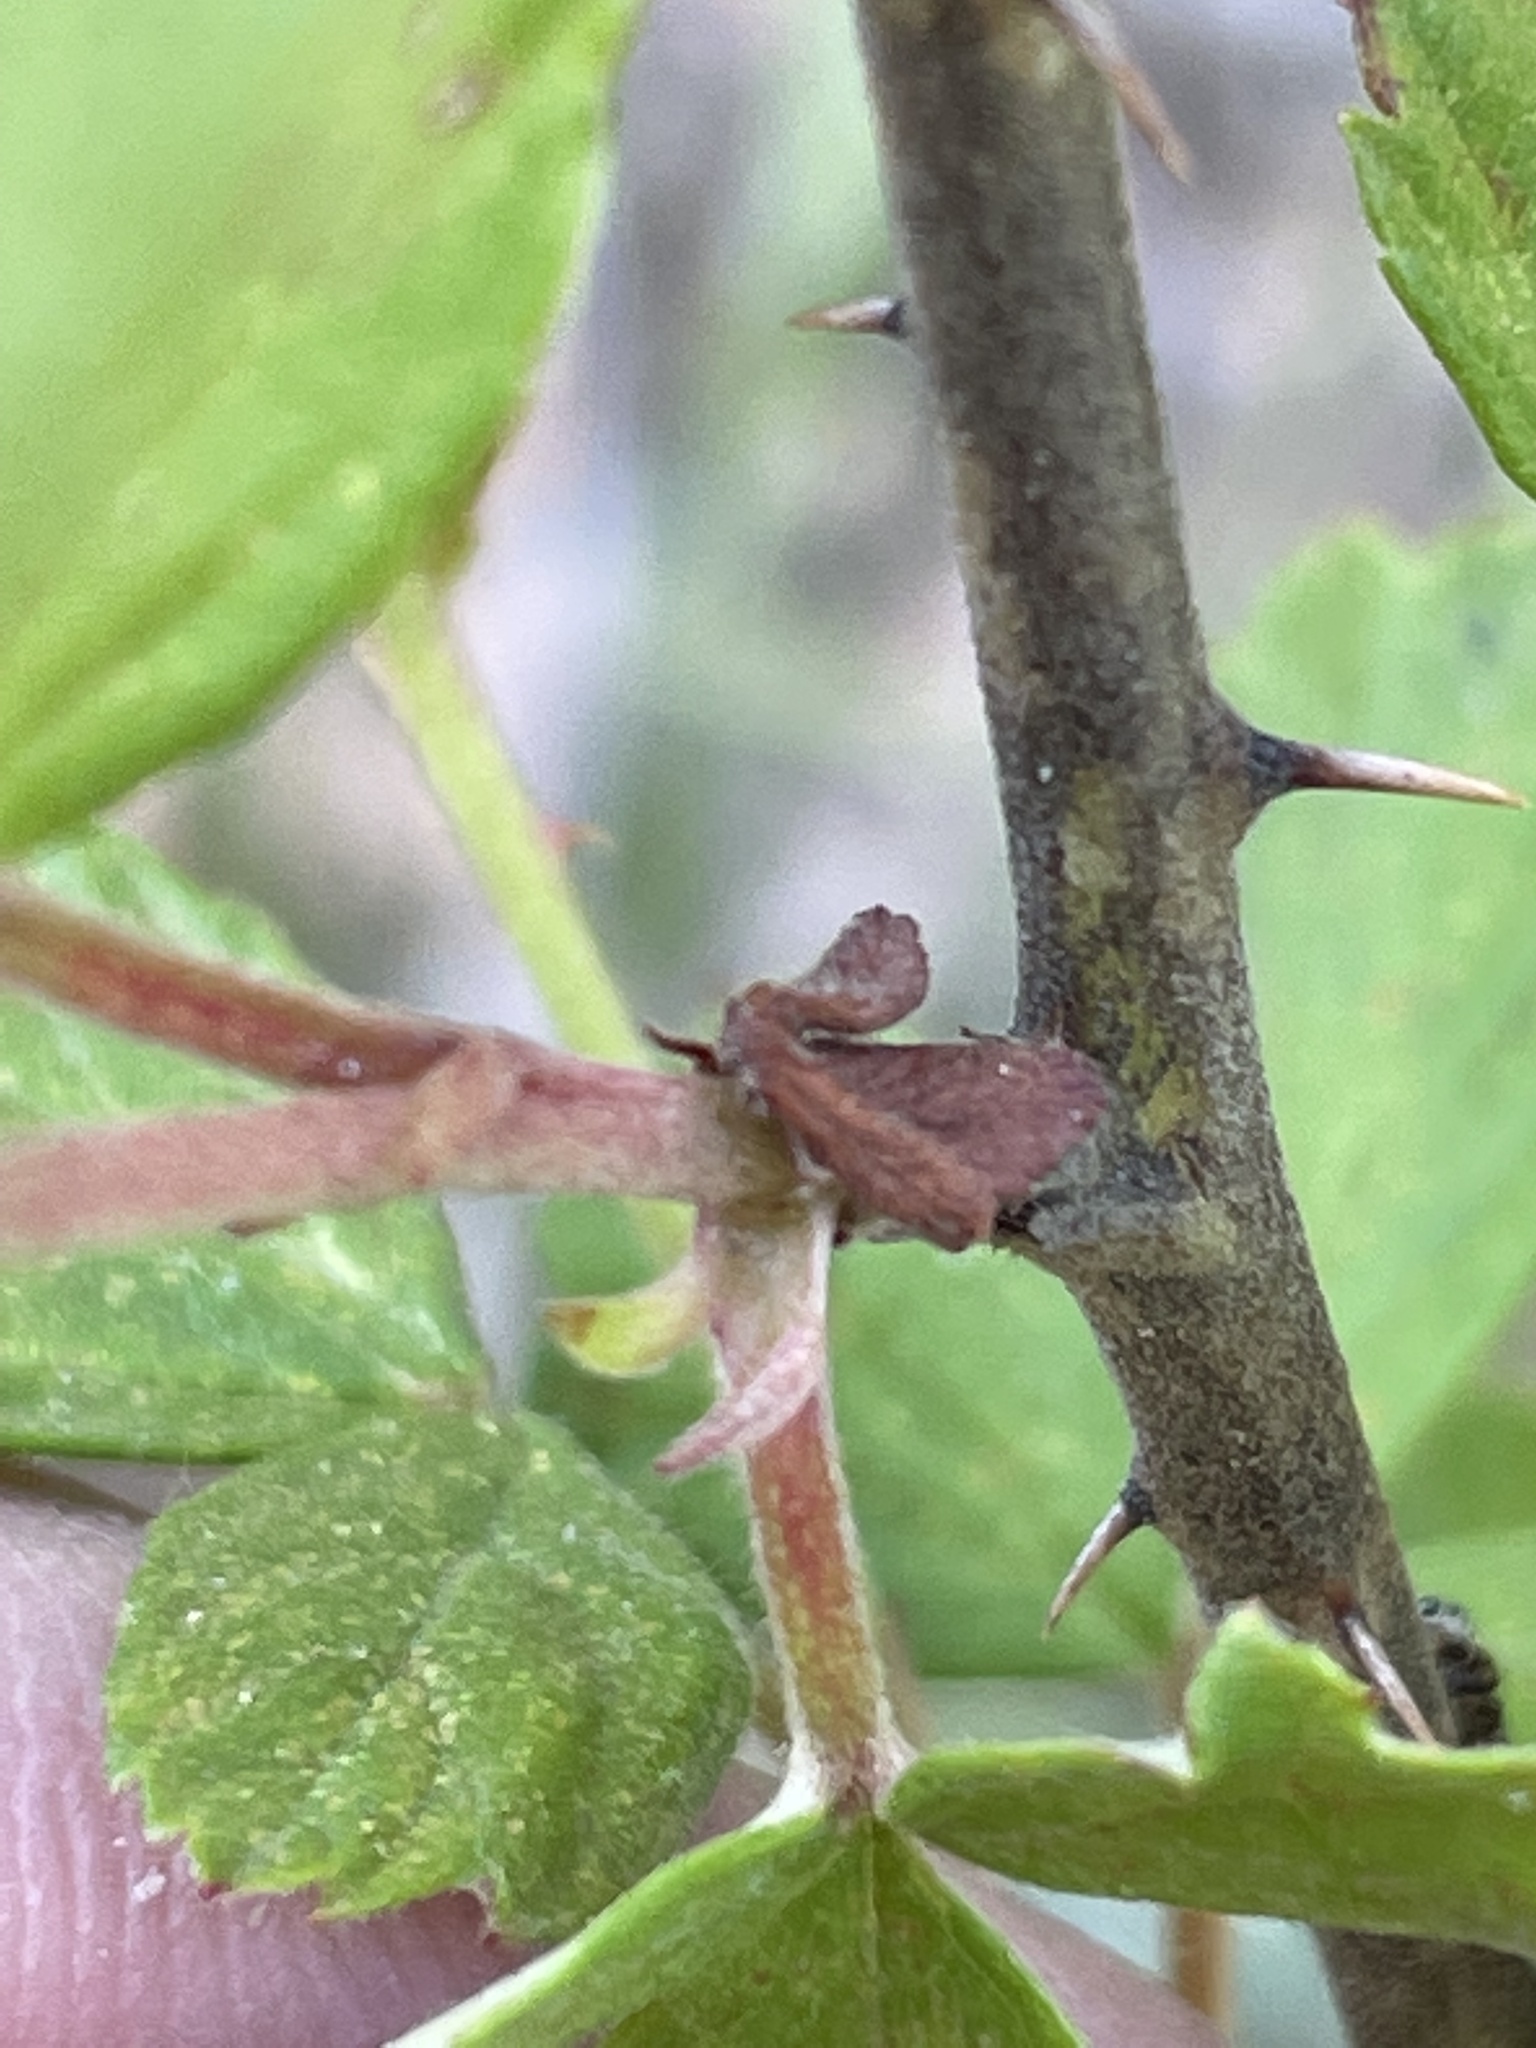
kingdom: Plantae
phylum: Tracheophyta
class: Magnoliopsida
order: Rosales
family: Rosaceae
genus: Rubus
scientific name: Rubus cuneifolius
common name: American bramble
